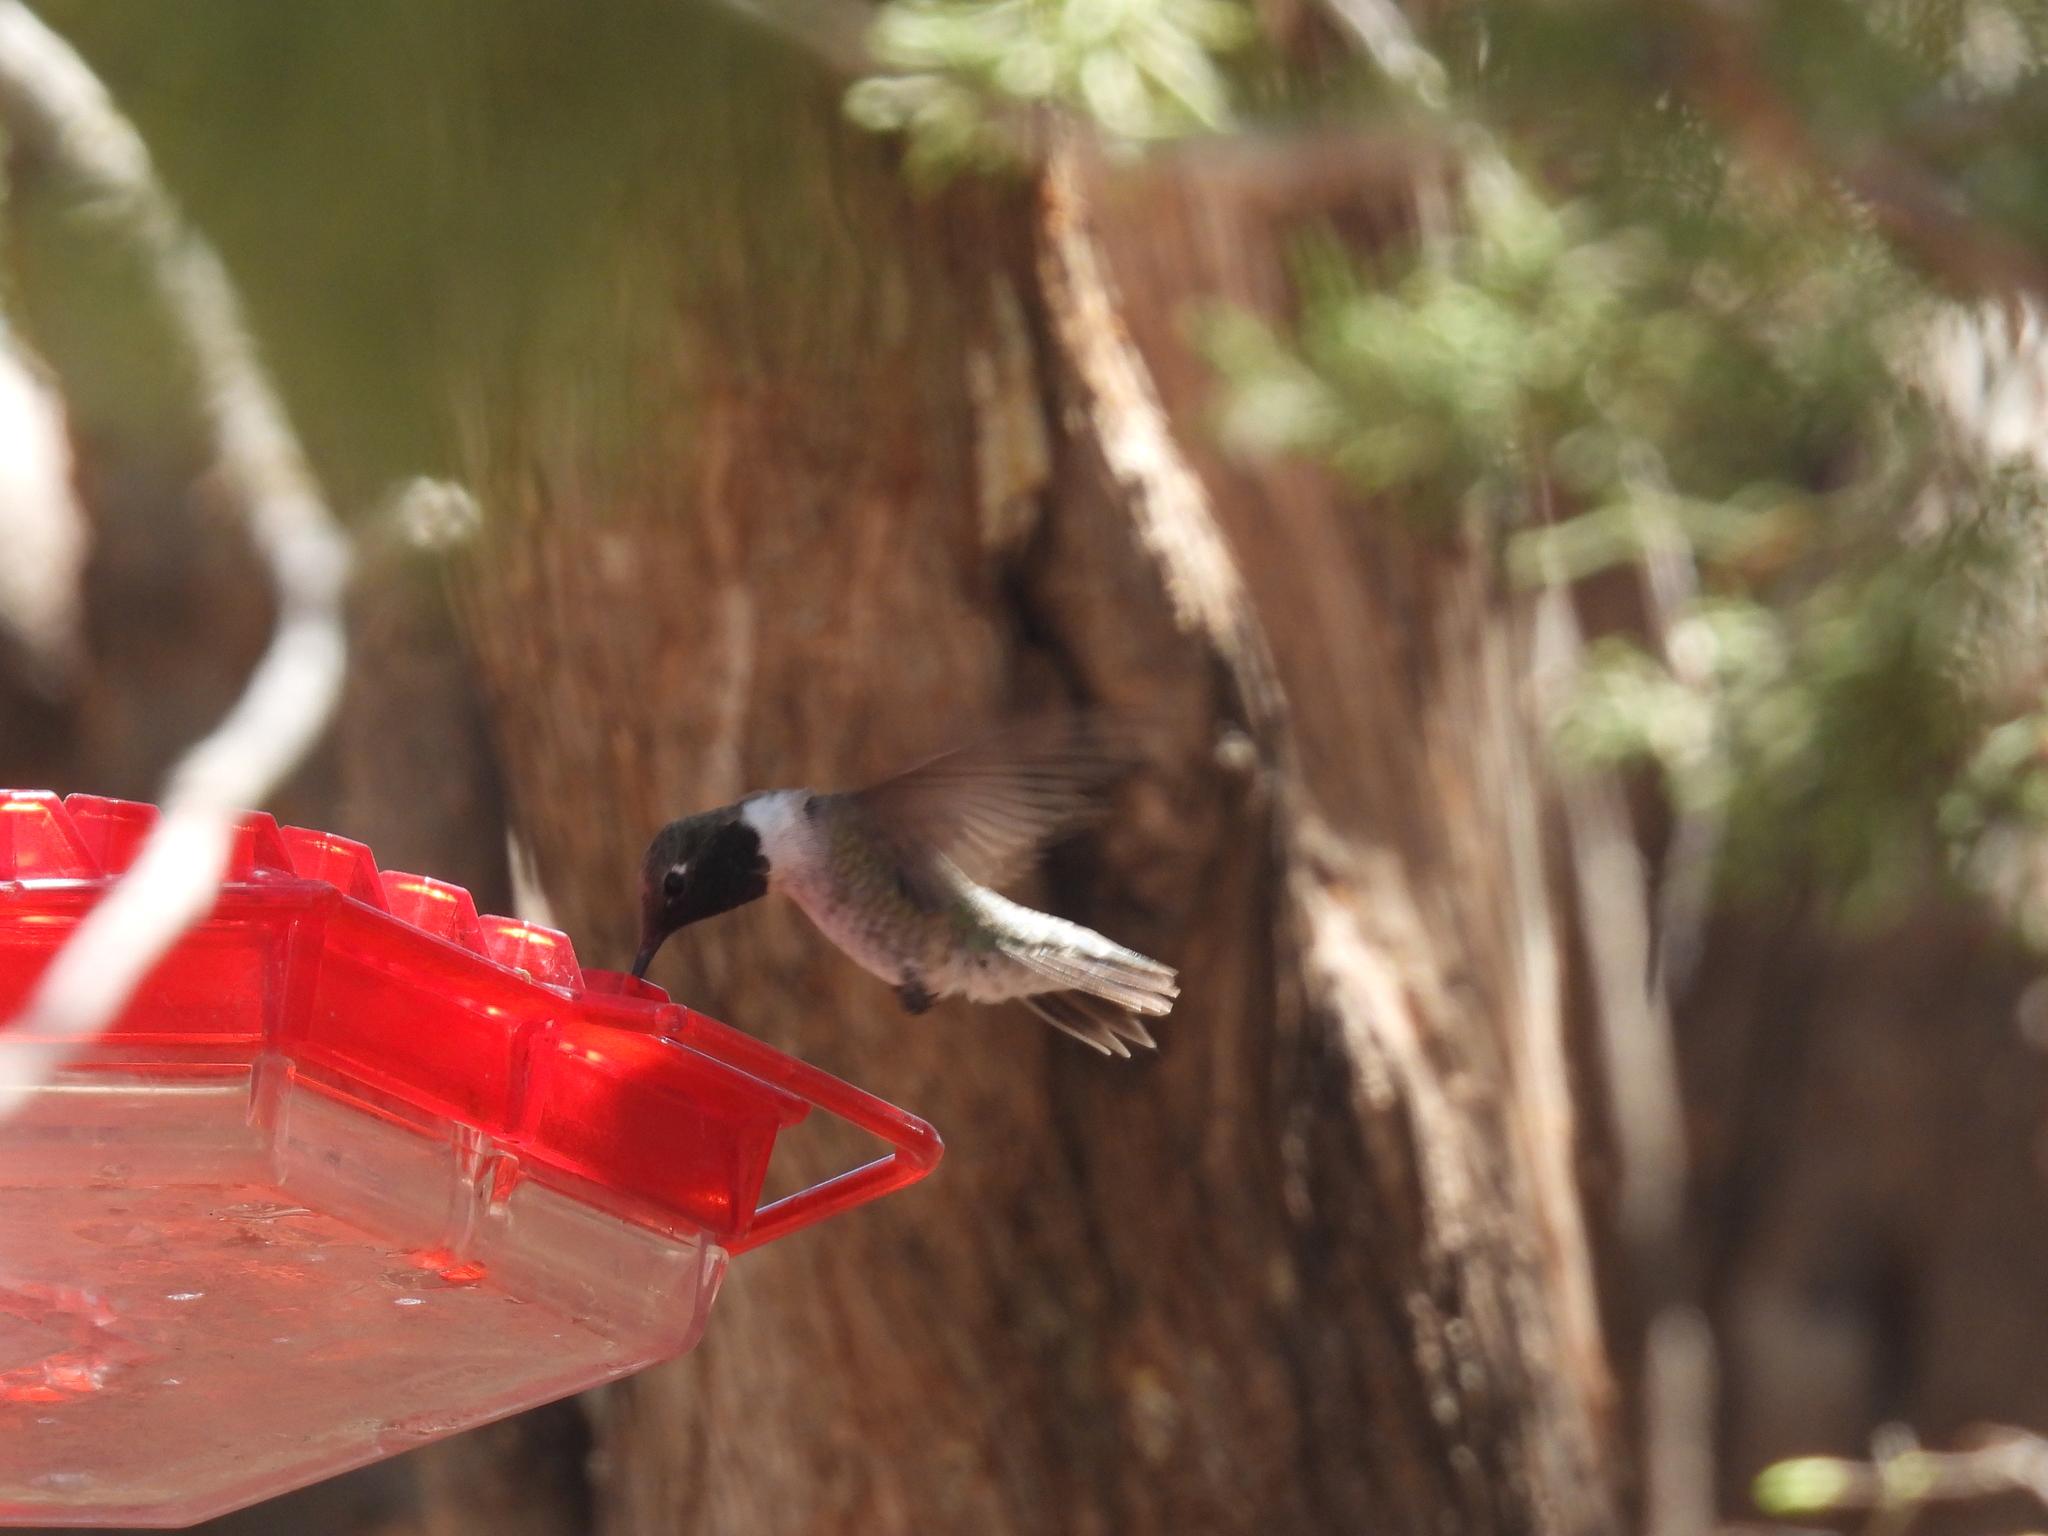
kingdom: Animalia
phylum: Chordata
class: Aves
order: Apodiformes
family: Trochilidae
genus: Archilochus
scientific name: Archilochus alexandri
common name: Black-chinned hummingbird
